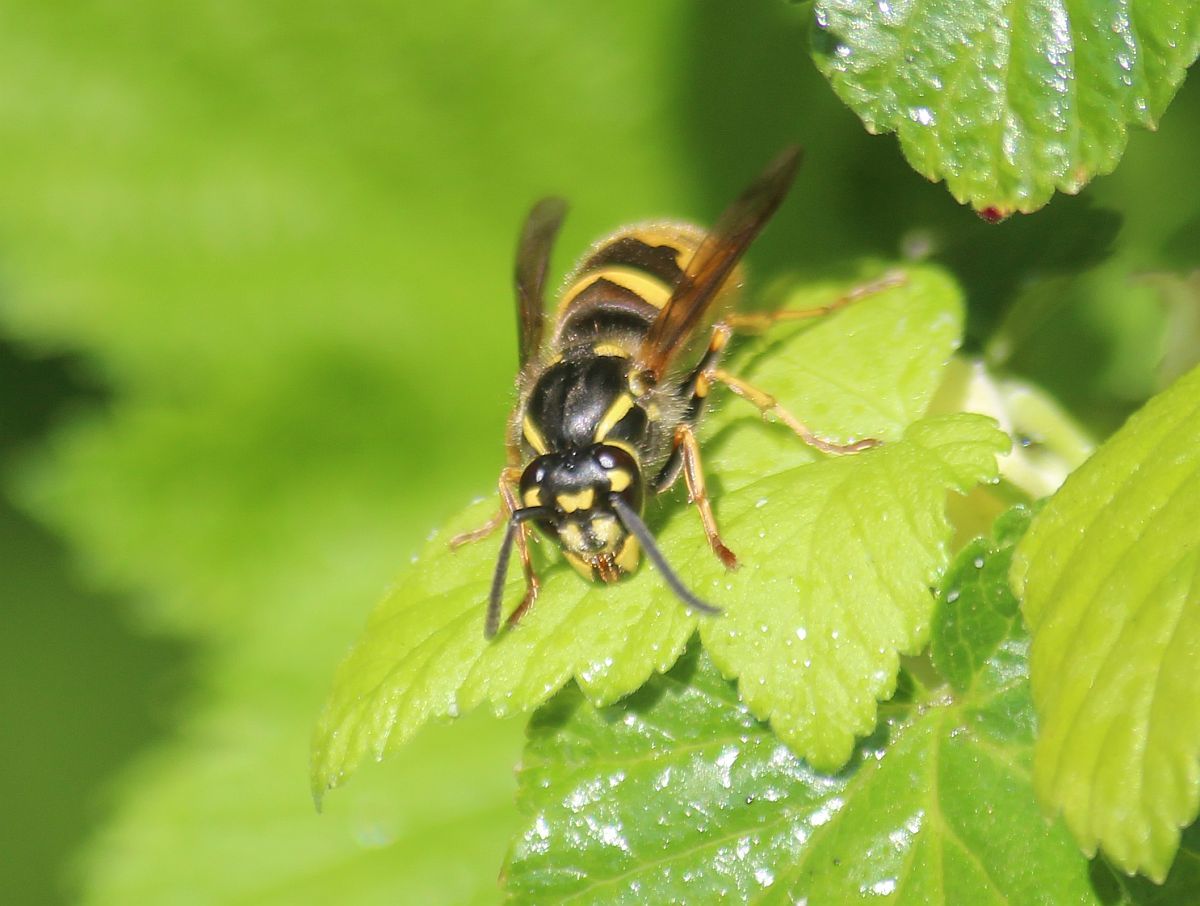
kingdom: Animalia
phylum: Arthropoda
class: Insecta
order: Hymenoptera
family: Vespidae
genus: Vespula
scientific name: Vespula vulgaris
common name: Common wasp
